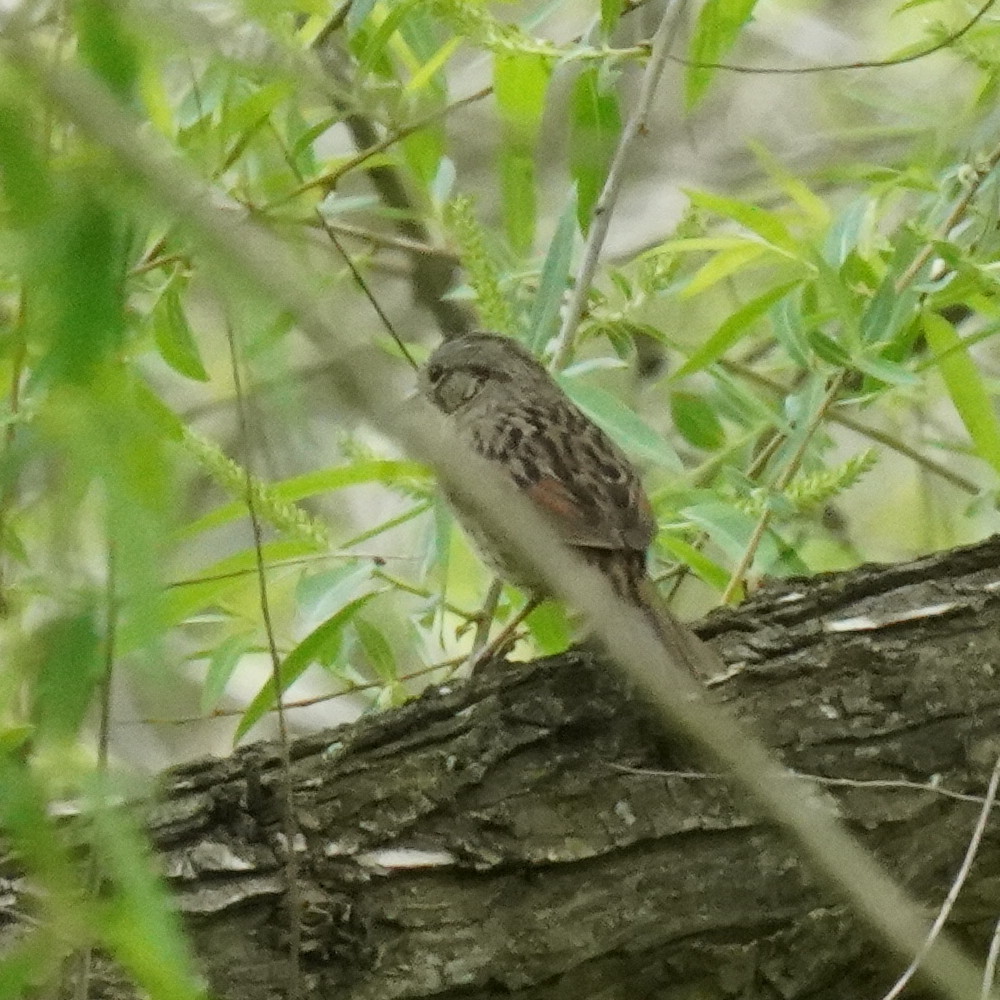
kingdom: Animalia
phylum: Chordata
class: Aves
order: Passeriformes
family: Passerellidae
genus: Melospiza
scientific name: Melospiza lincolnii
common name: Lincoln's sparrow
